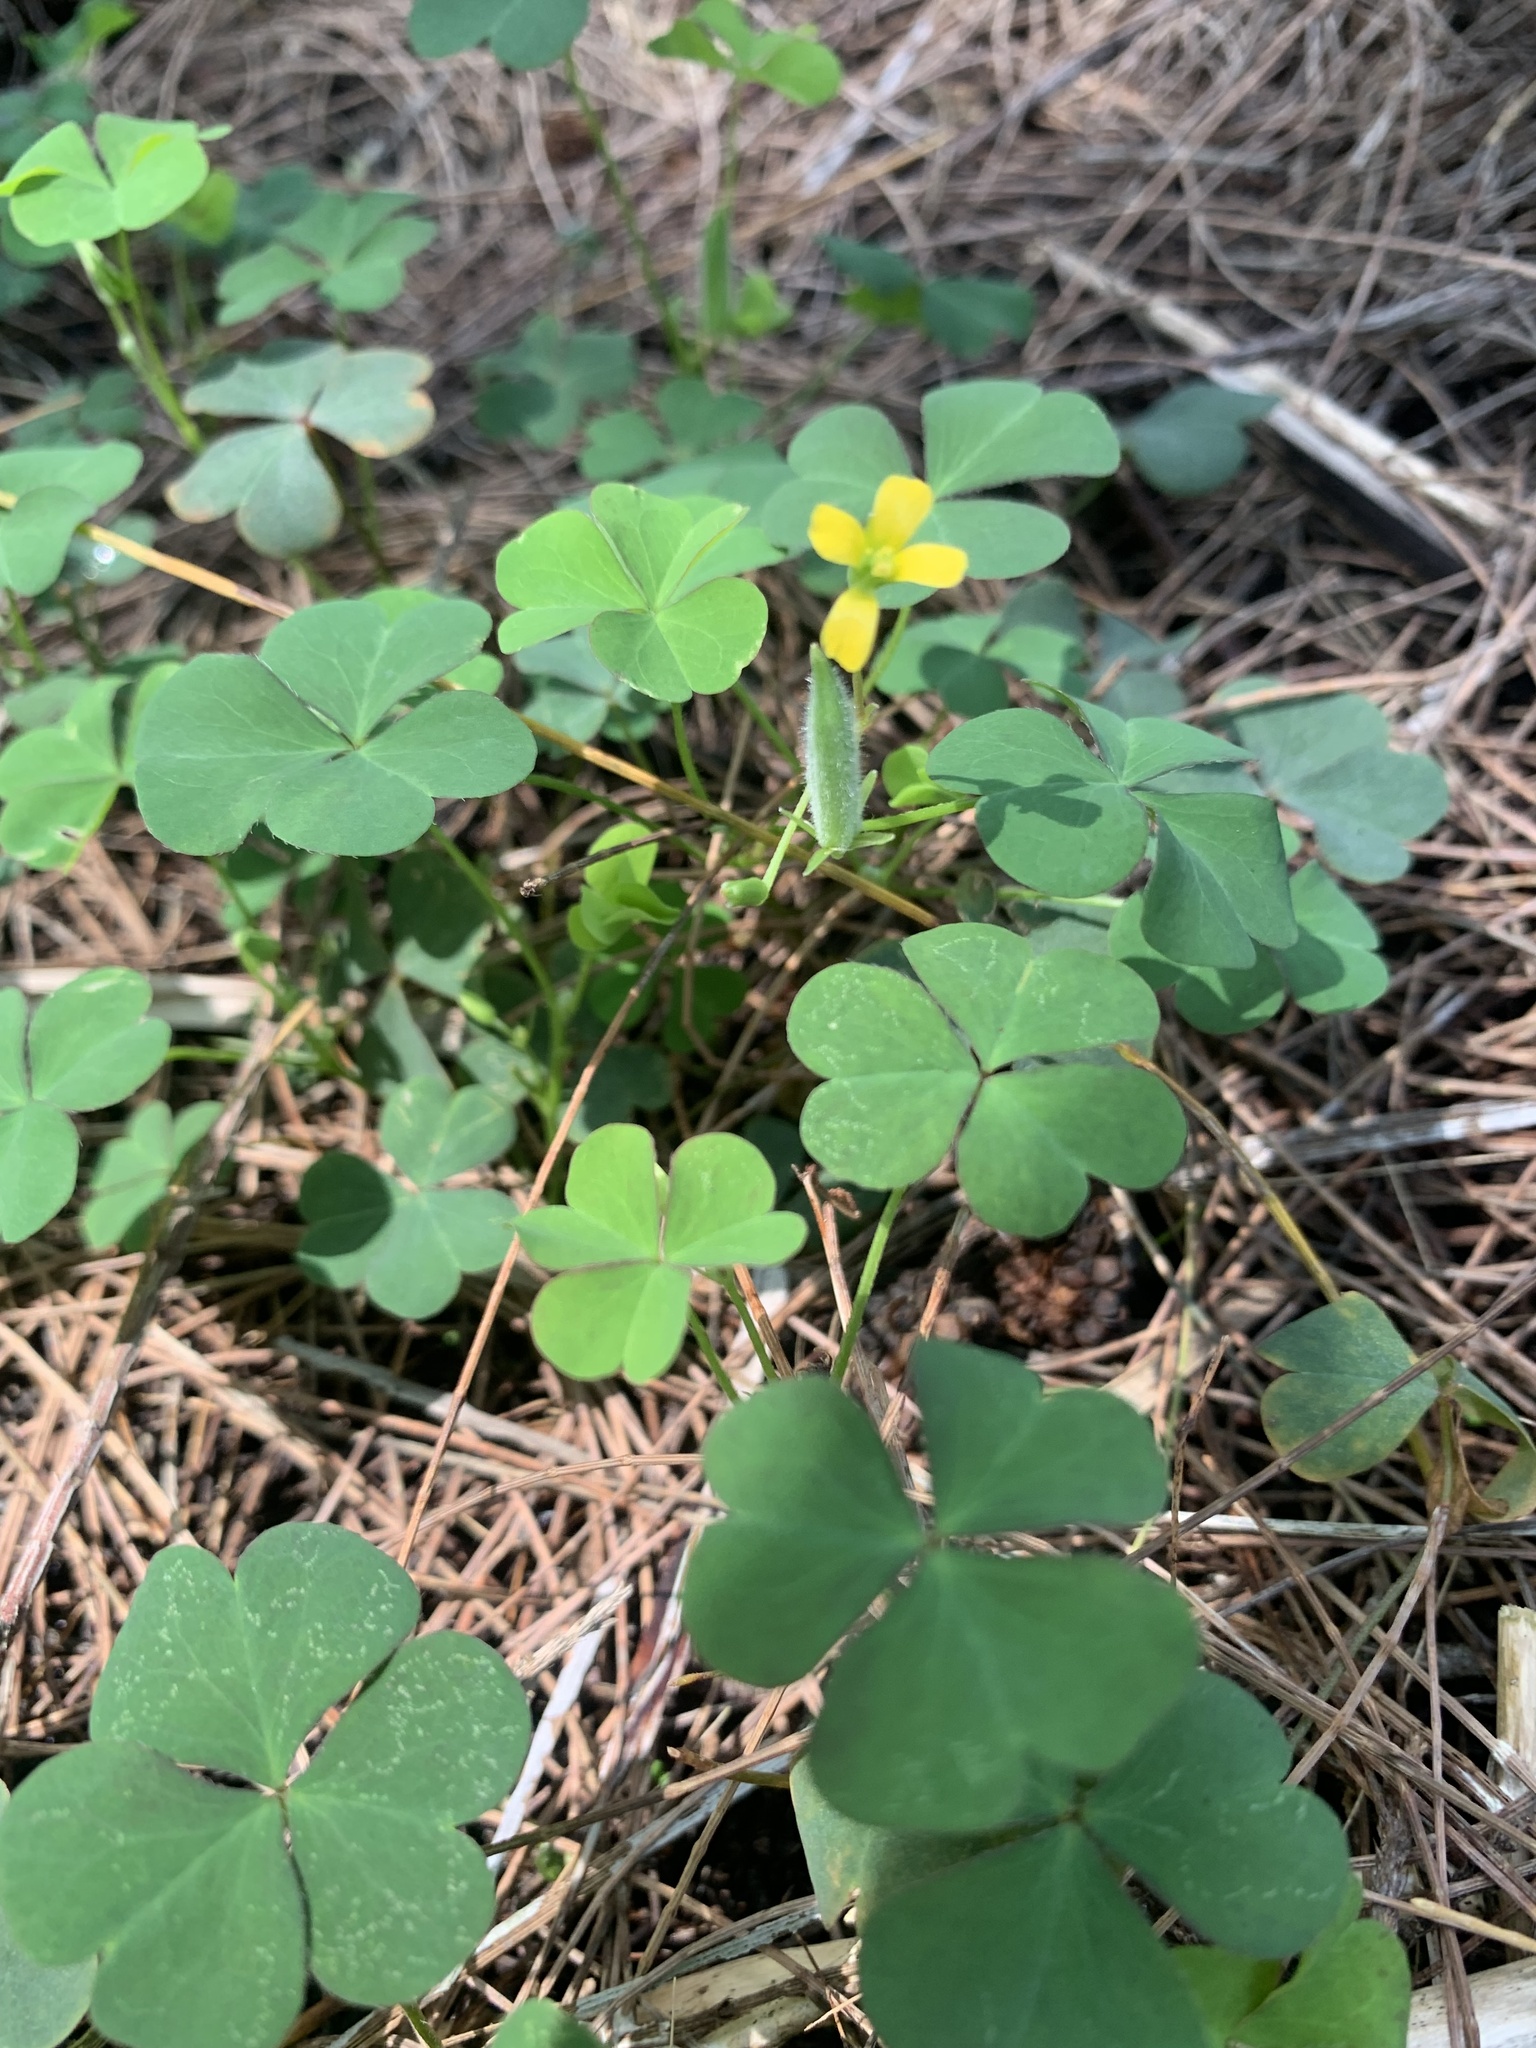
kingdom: Plantae
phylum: Tracheophyta
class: Magnoliopsida
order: Oxalidales
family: Oxalidaceae
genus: Oxalis
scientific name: Oxalis corniculata
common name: Procumbent yellow-sorrel
